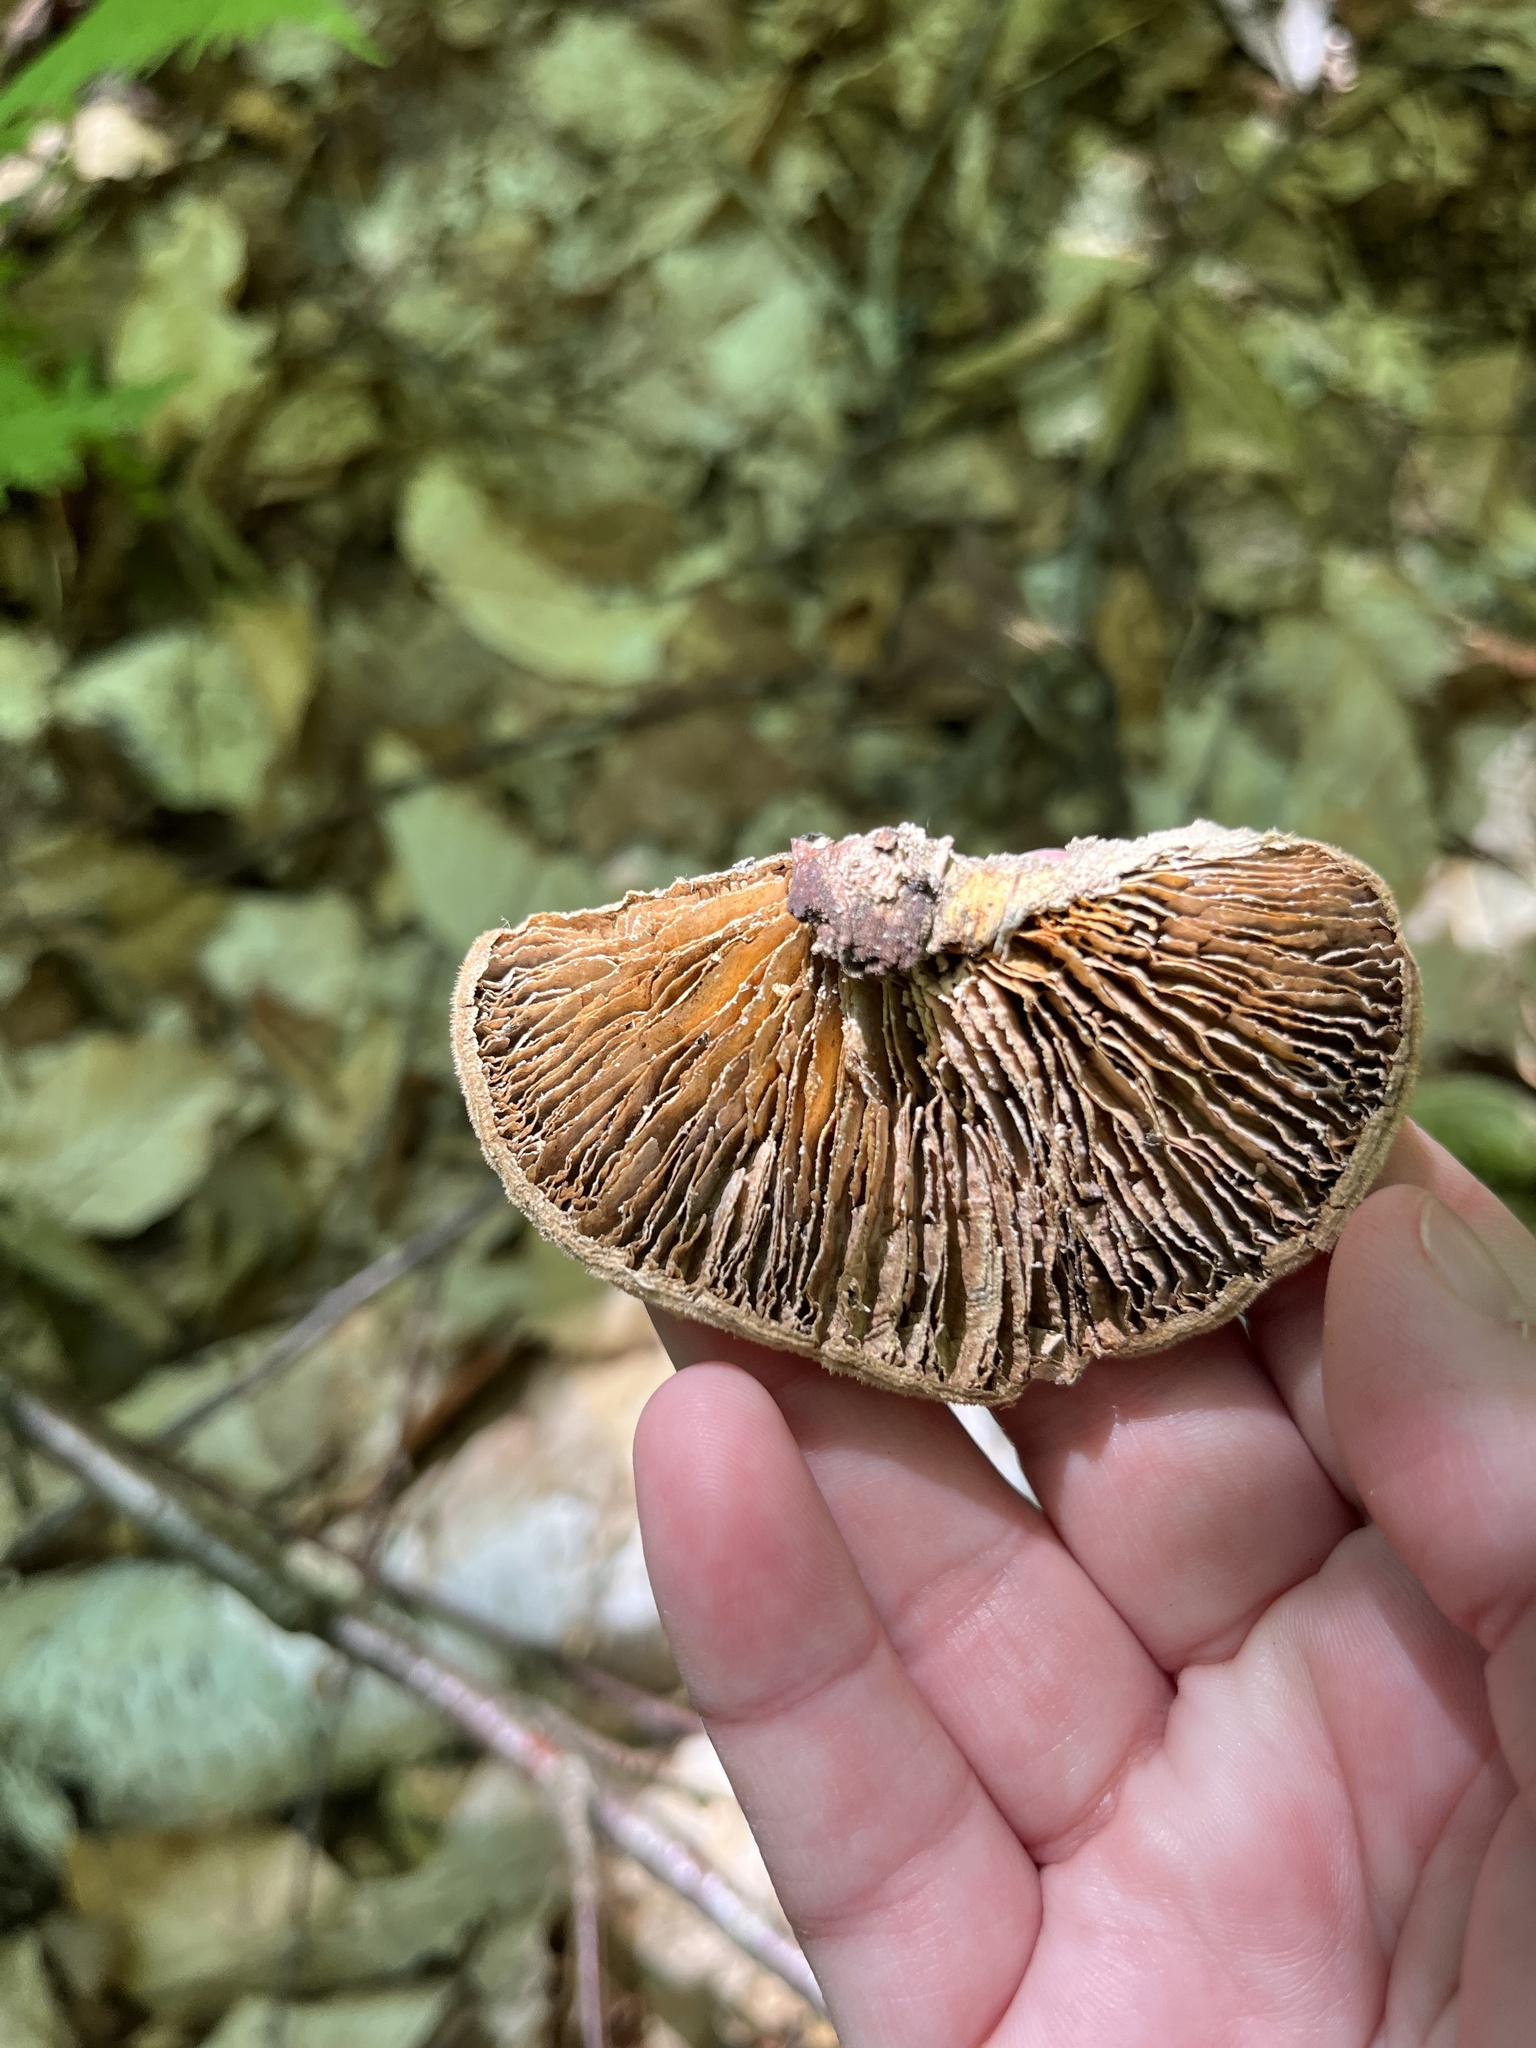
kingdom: Fungi
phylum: Basidiomycota
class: Agaricomycetes
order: Polyporales
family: Polyporaceae
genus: Lenzites
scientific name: Lenzites betulinus
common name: Birch mazegill
